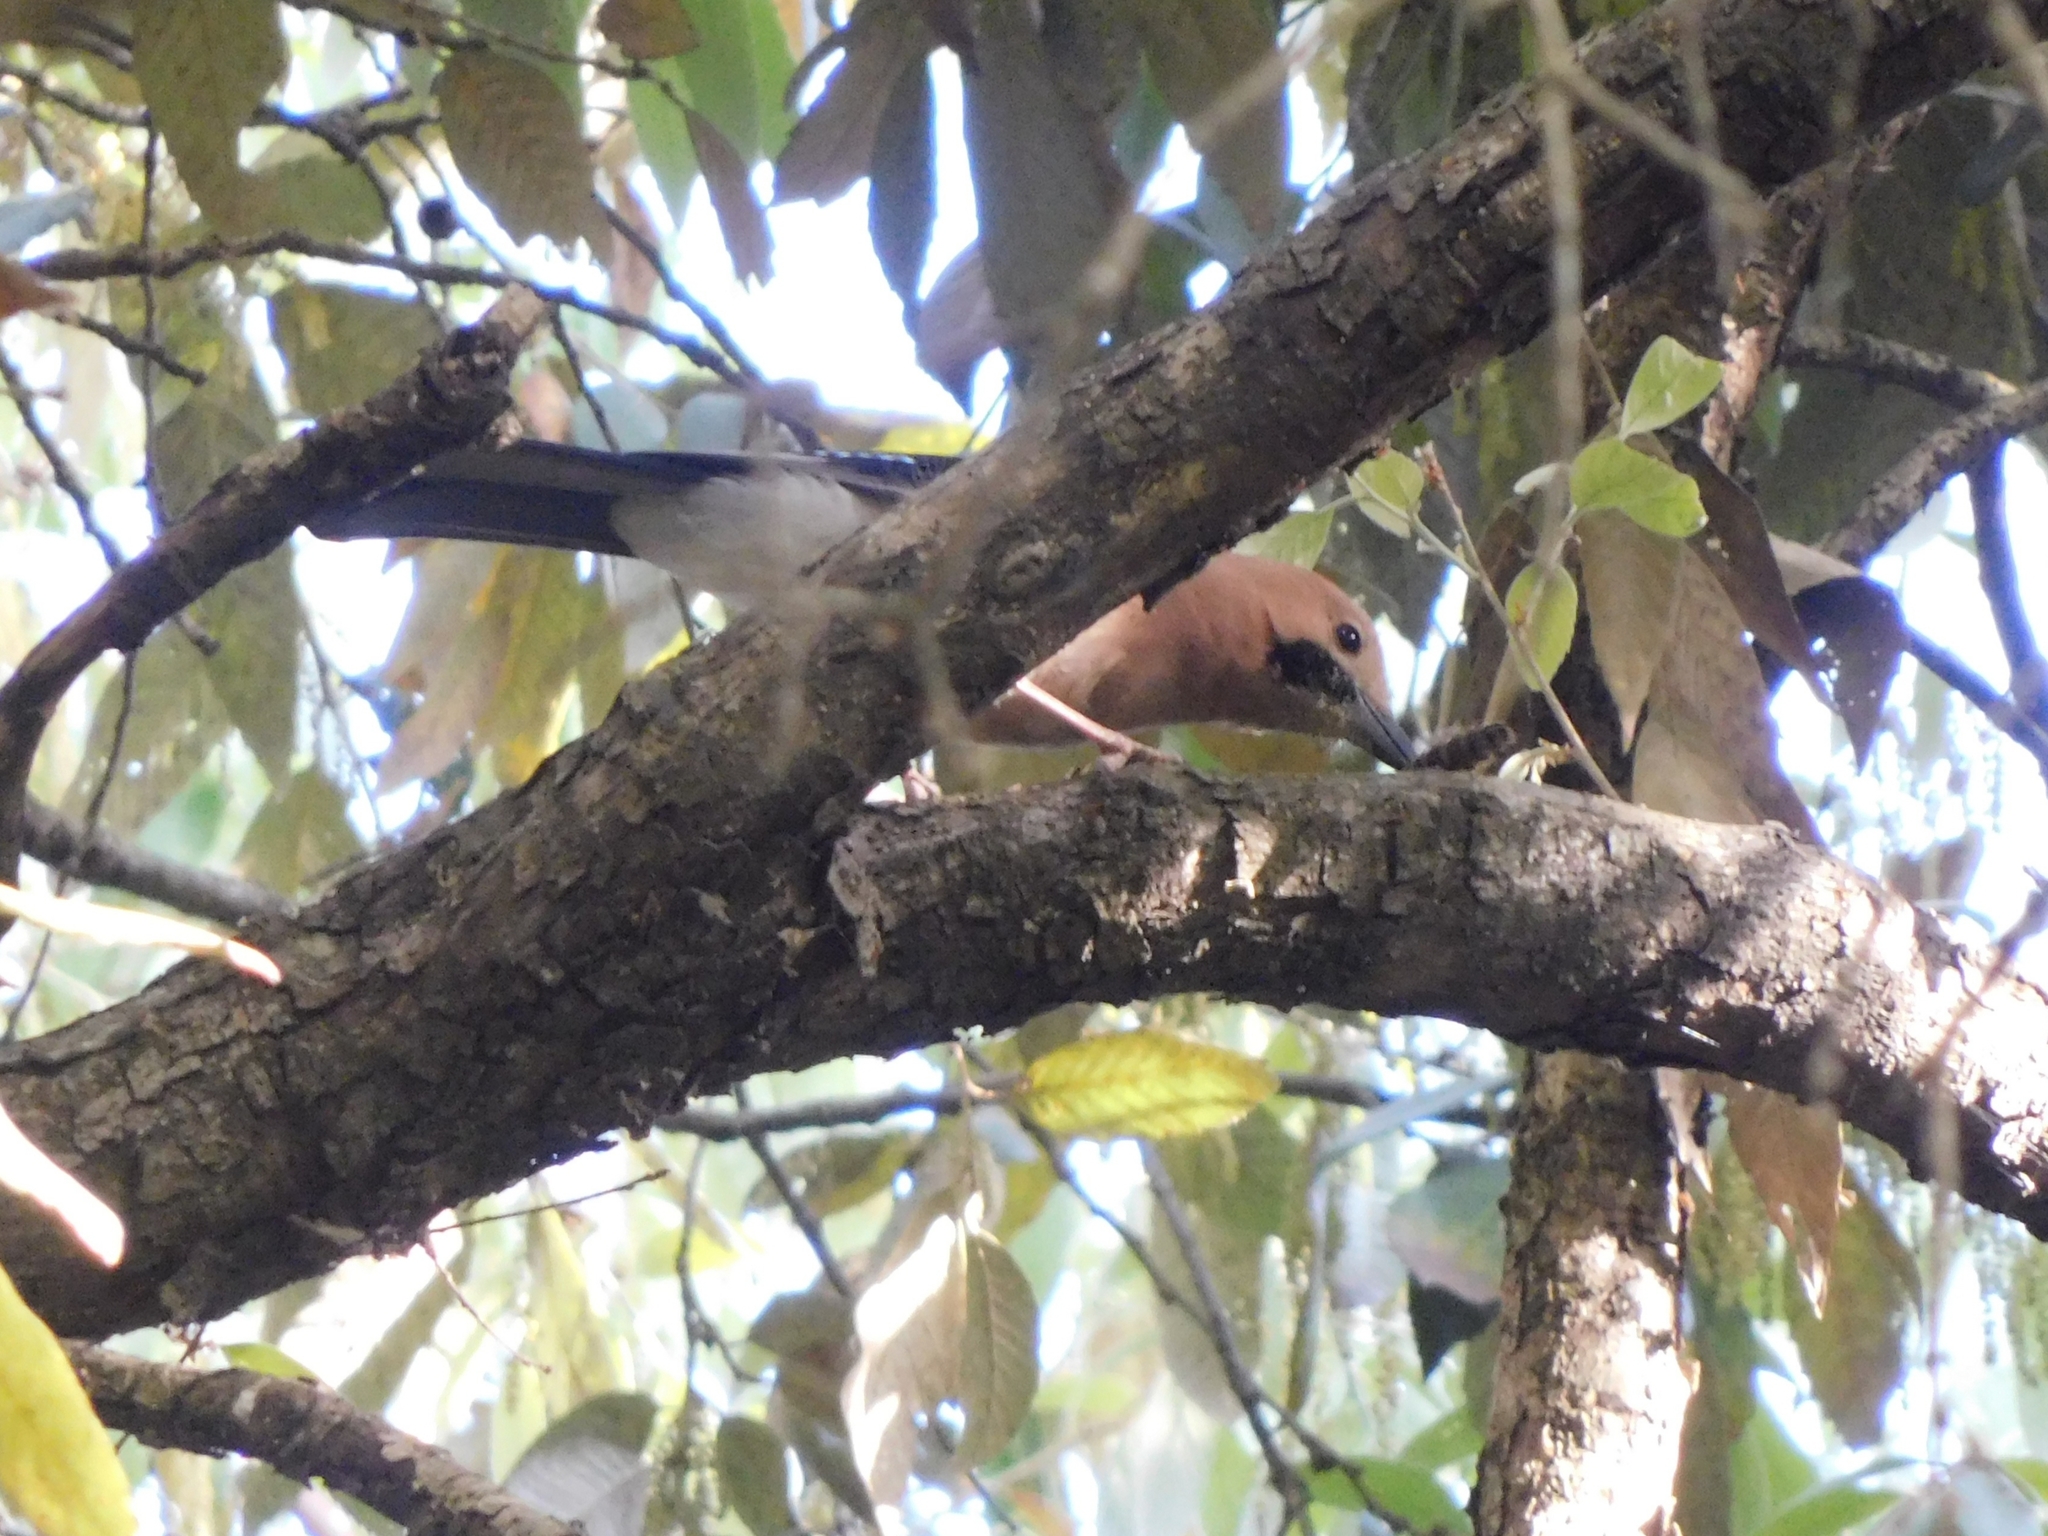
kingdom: Animalia
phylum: Chordata
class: Aves
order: Passeriformes
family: Corvidae
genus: Garrulus
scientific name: Garrulus glandarius
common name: Eurasian jay
